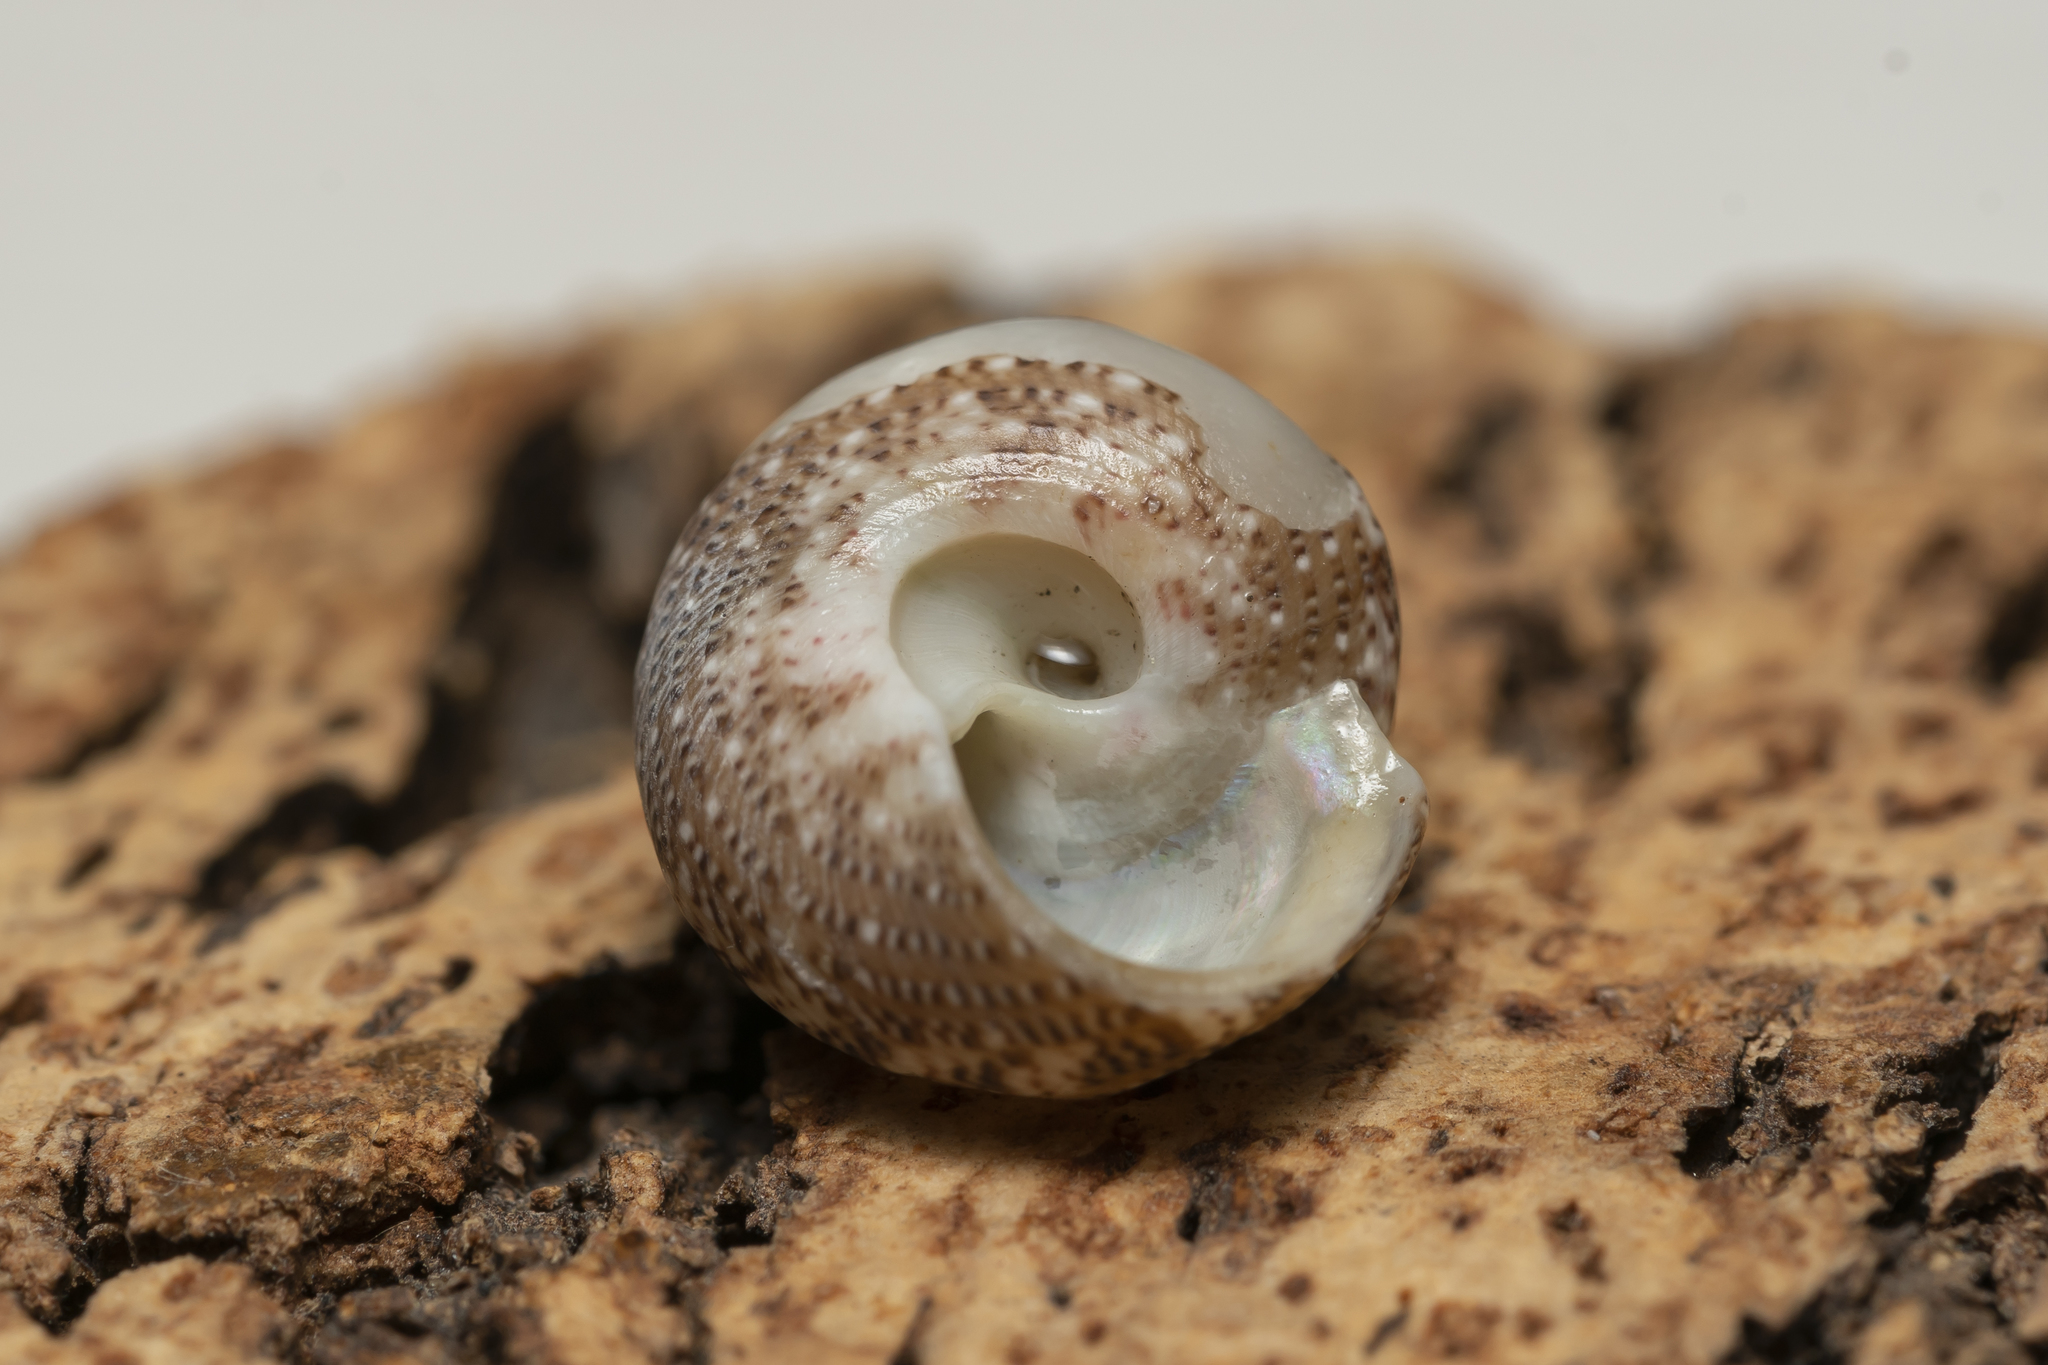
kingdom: Animalia
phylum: Mollusca
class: Gastropoda
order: Trochida
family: Trochidae
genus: Steromphala
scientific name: Steromphala umbilicaris
